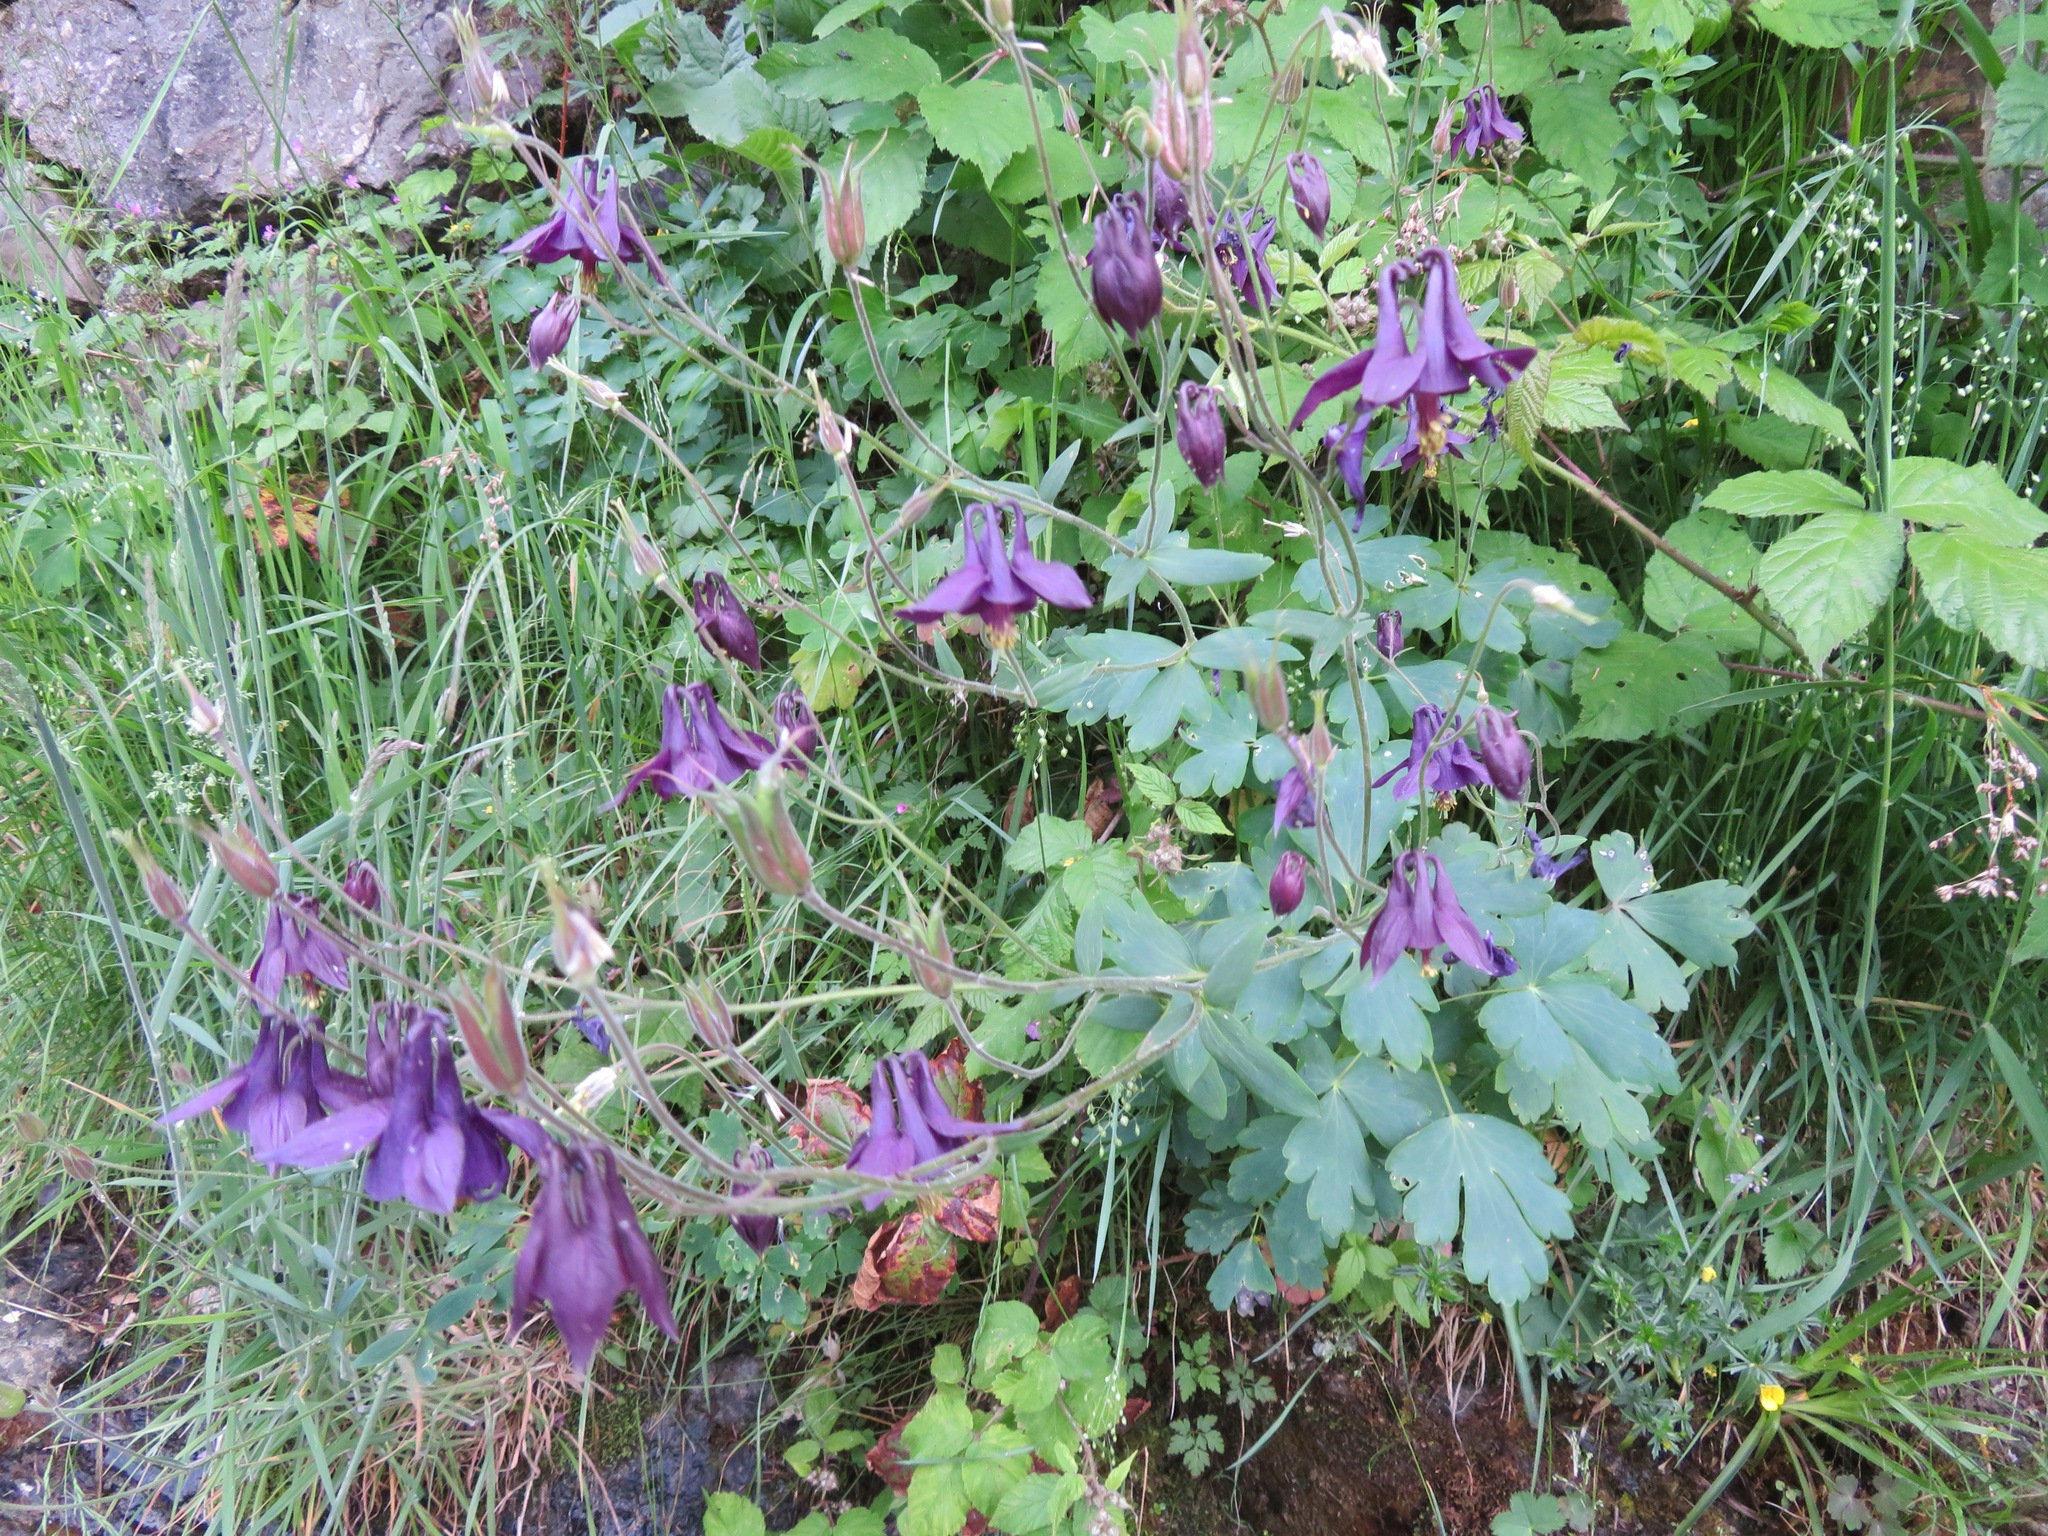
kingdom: Plantae
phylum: Tracheophyta
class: Magnoliopsida
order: Ranunculales
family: Ranunculaceae
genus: Aquilegia
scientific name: Aquilegia atrata
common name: Dark columbine
